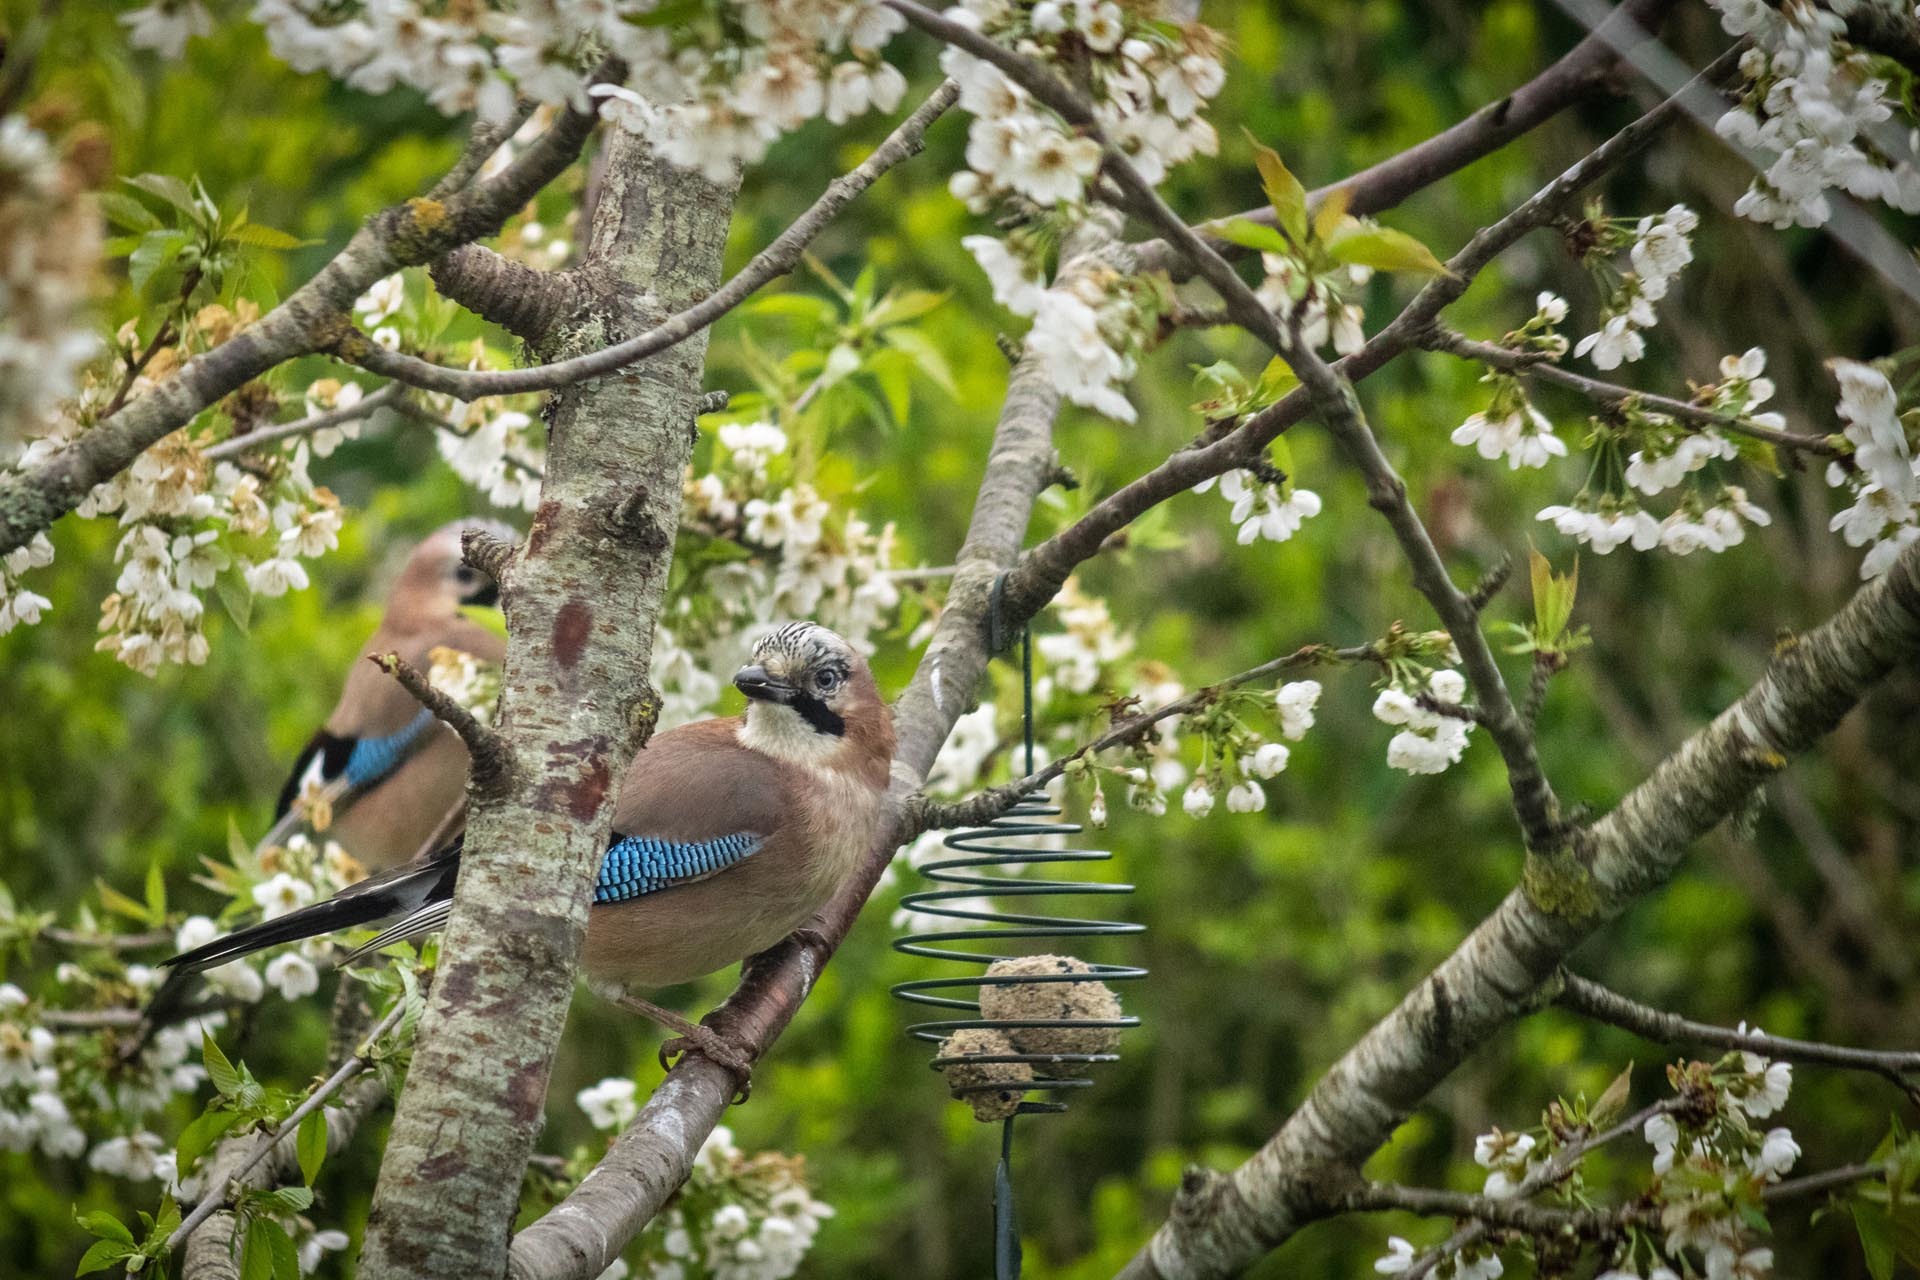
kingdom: Animalia
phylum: Chordata
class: Aves
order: Passeriformes
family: Corvidae
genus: Garrulus
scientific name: Garrulus glandarius
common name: Eurasian jay
